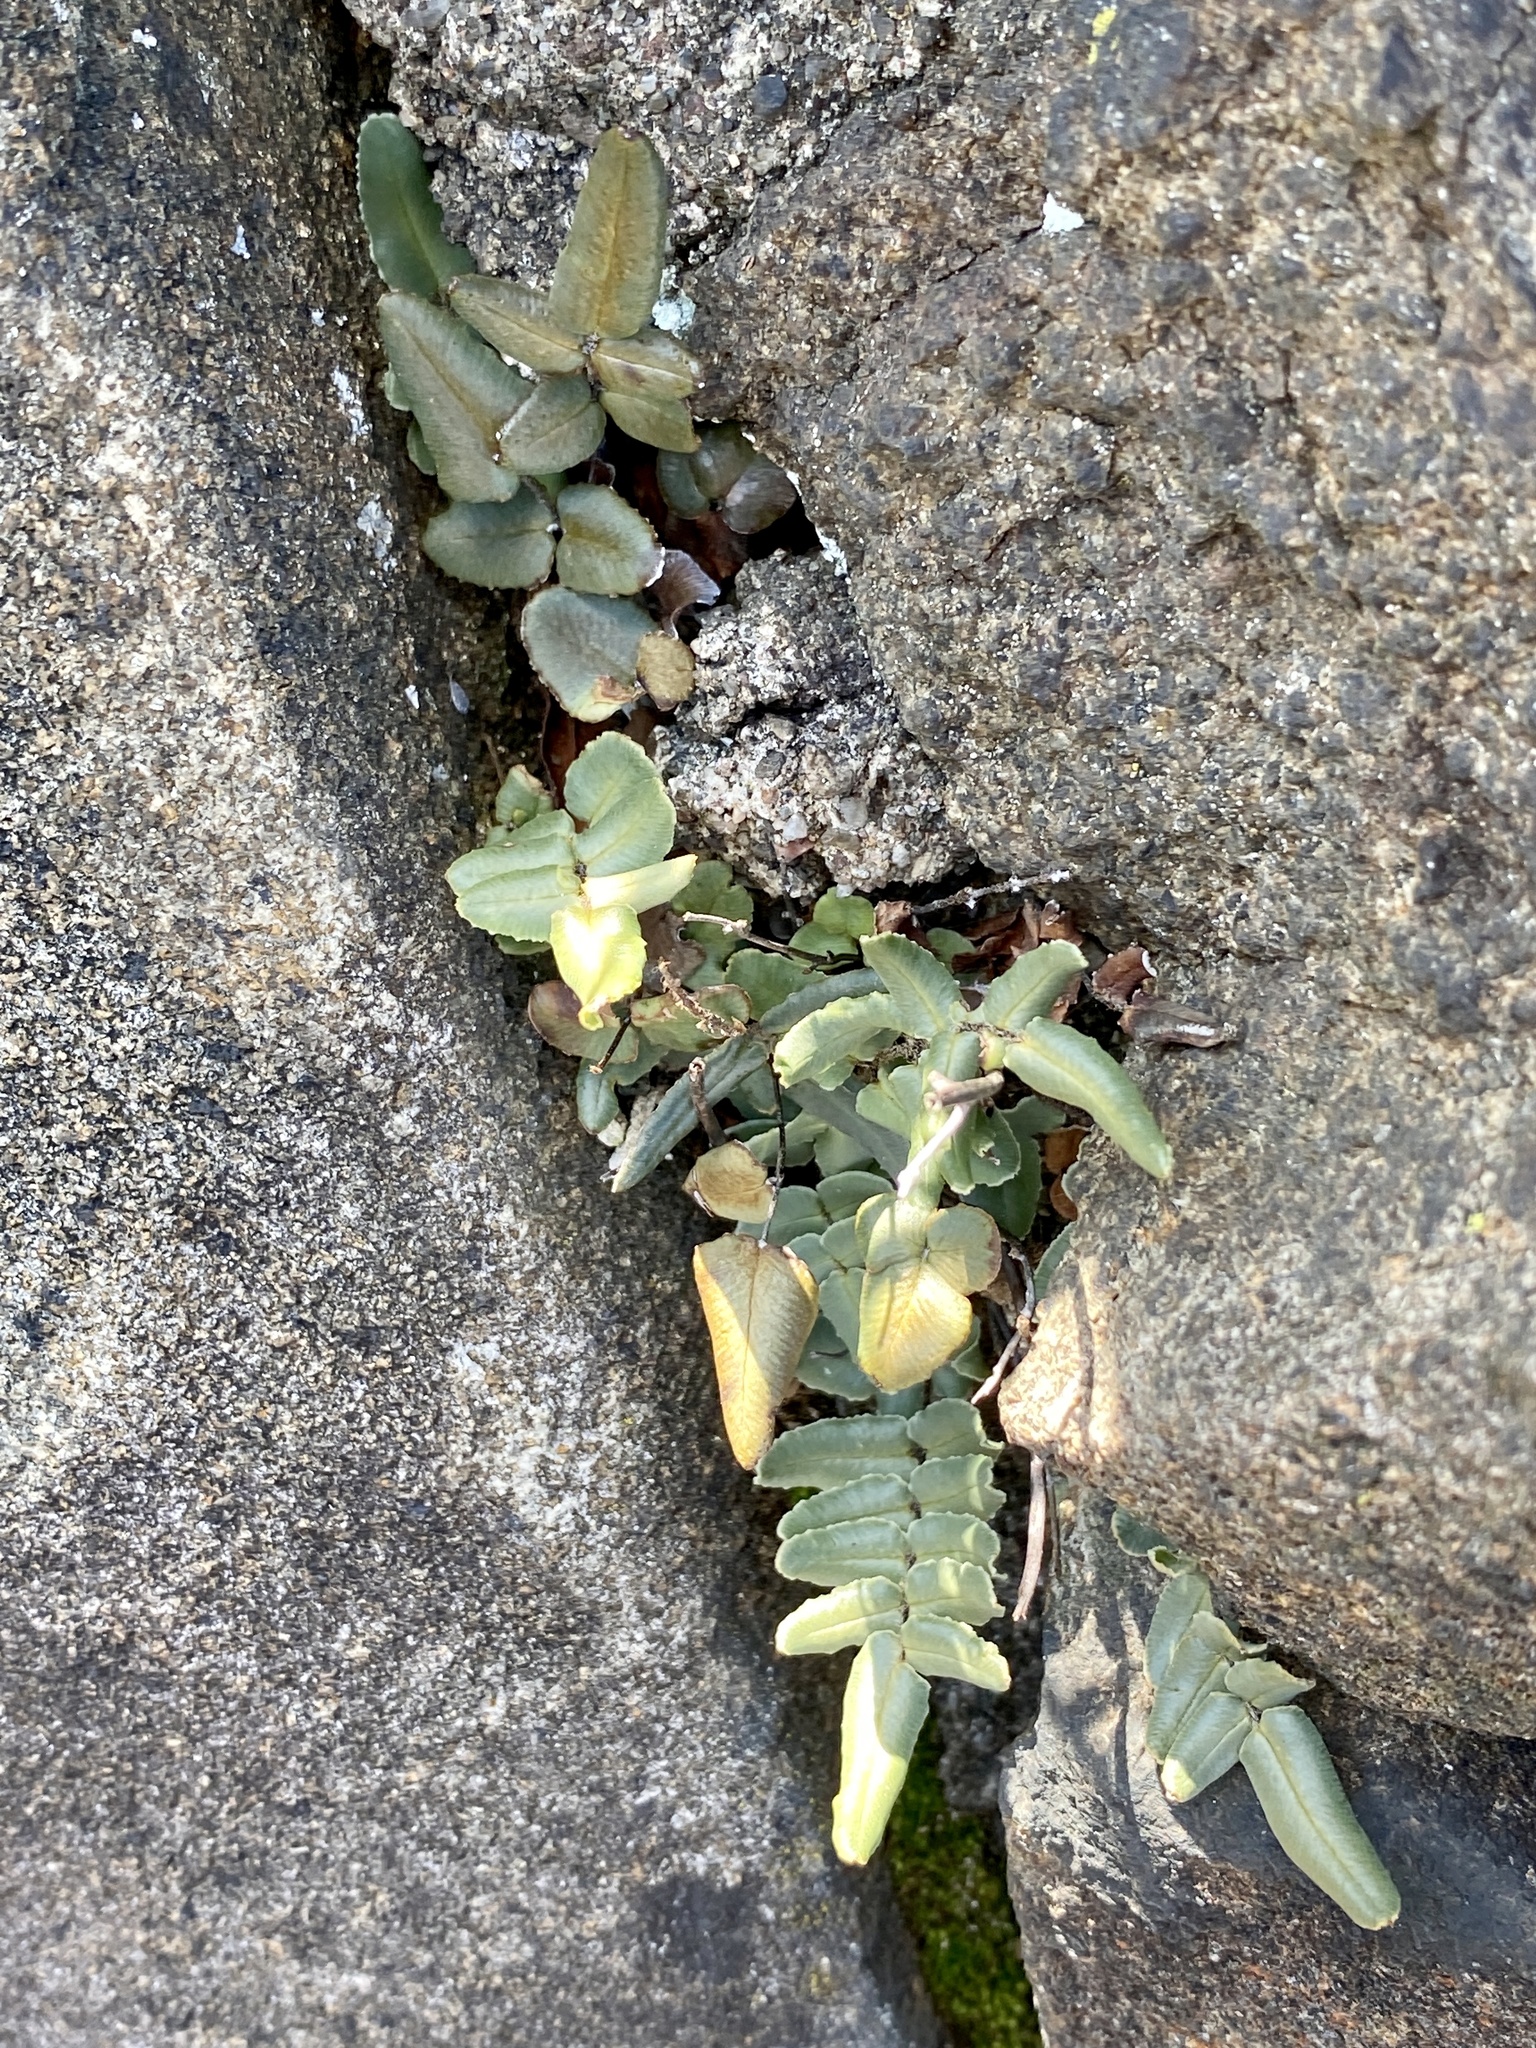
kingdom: Plantae
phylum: Tracheophyta
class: Polypodiopsida
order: Polypodiales
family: Pteridaceae
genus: Pellaea
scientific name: Pellaea atropurpurea
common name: Hairy cliffbrake
